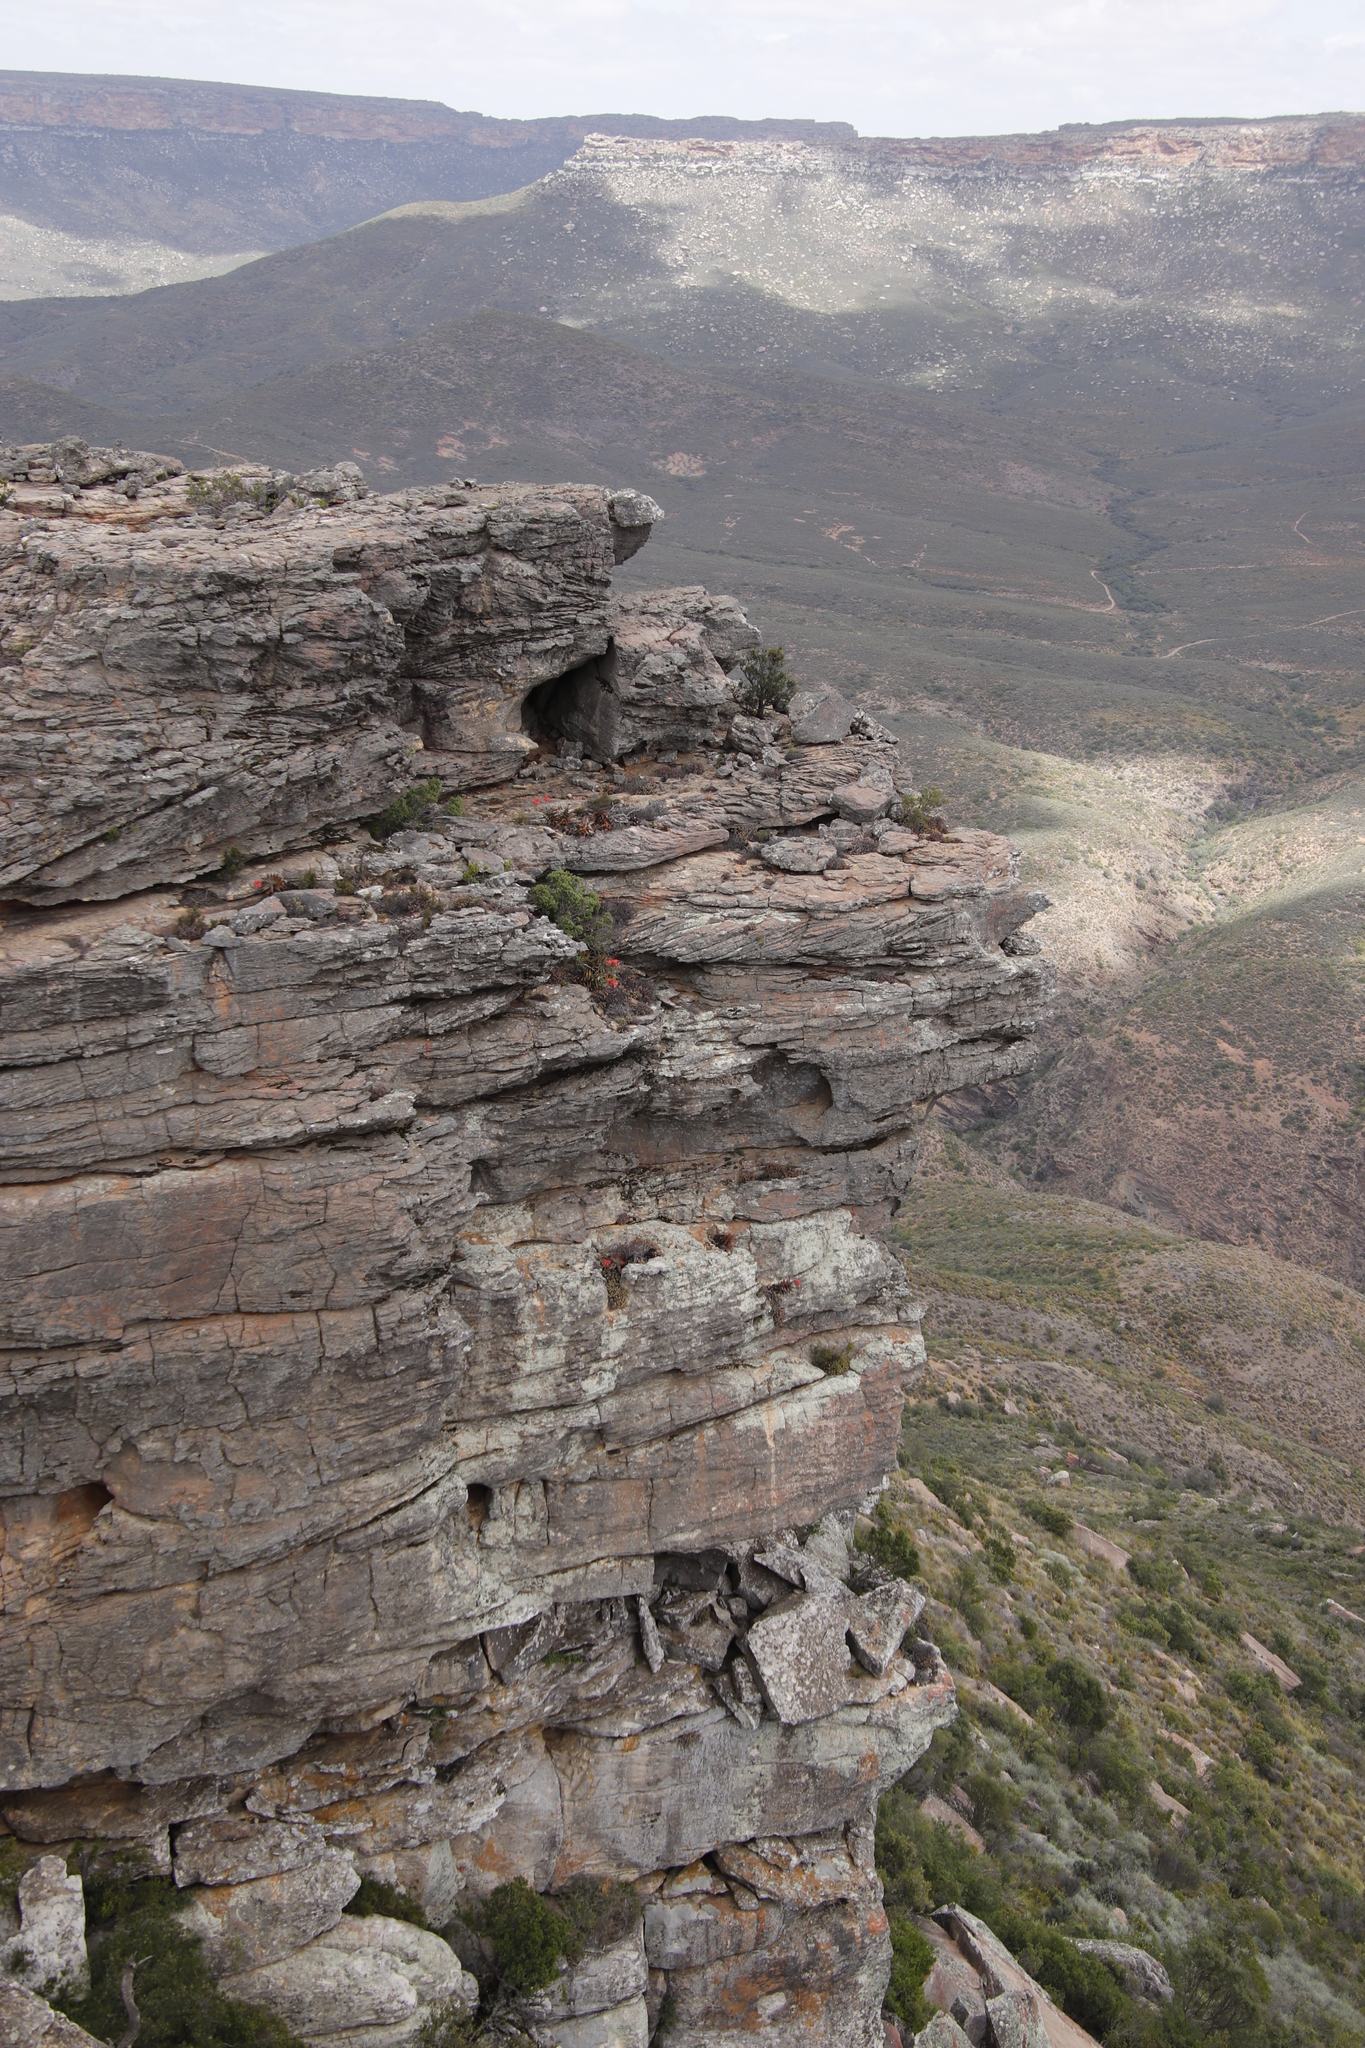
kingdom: Plantae
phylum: Tracheophyta
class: Liliopsida
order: Asparagales
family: Asphodelaceae
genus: Aloe
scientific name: Aloe perfoliata
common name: Mitra aloe
